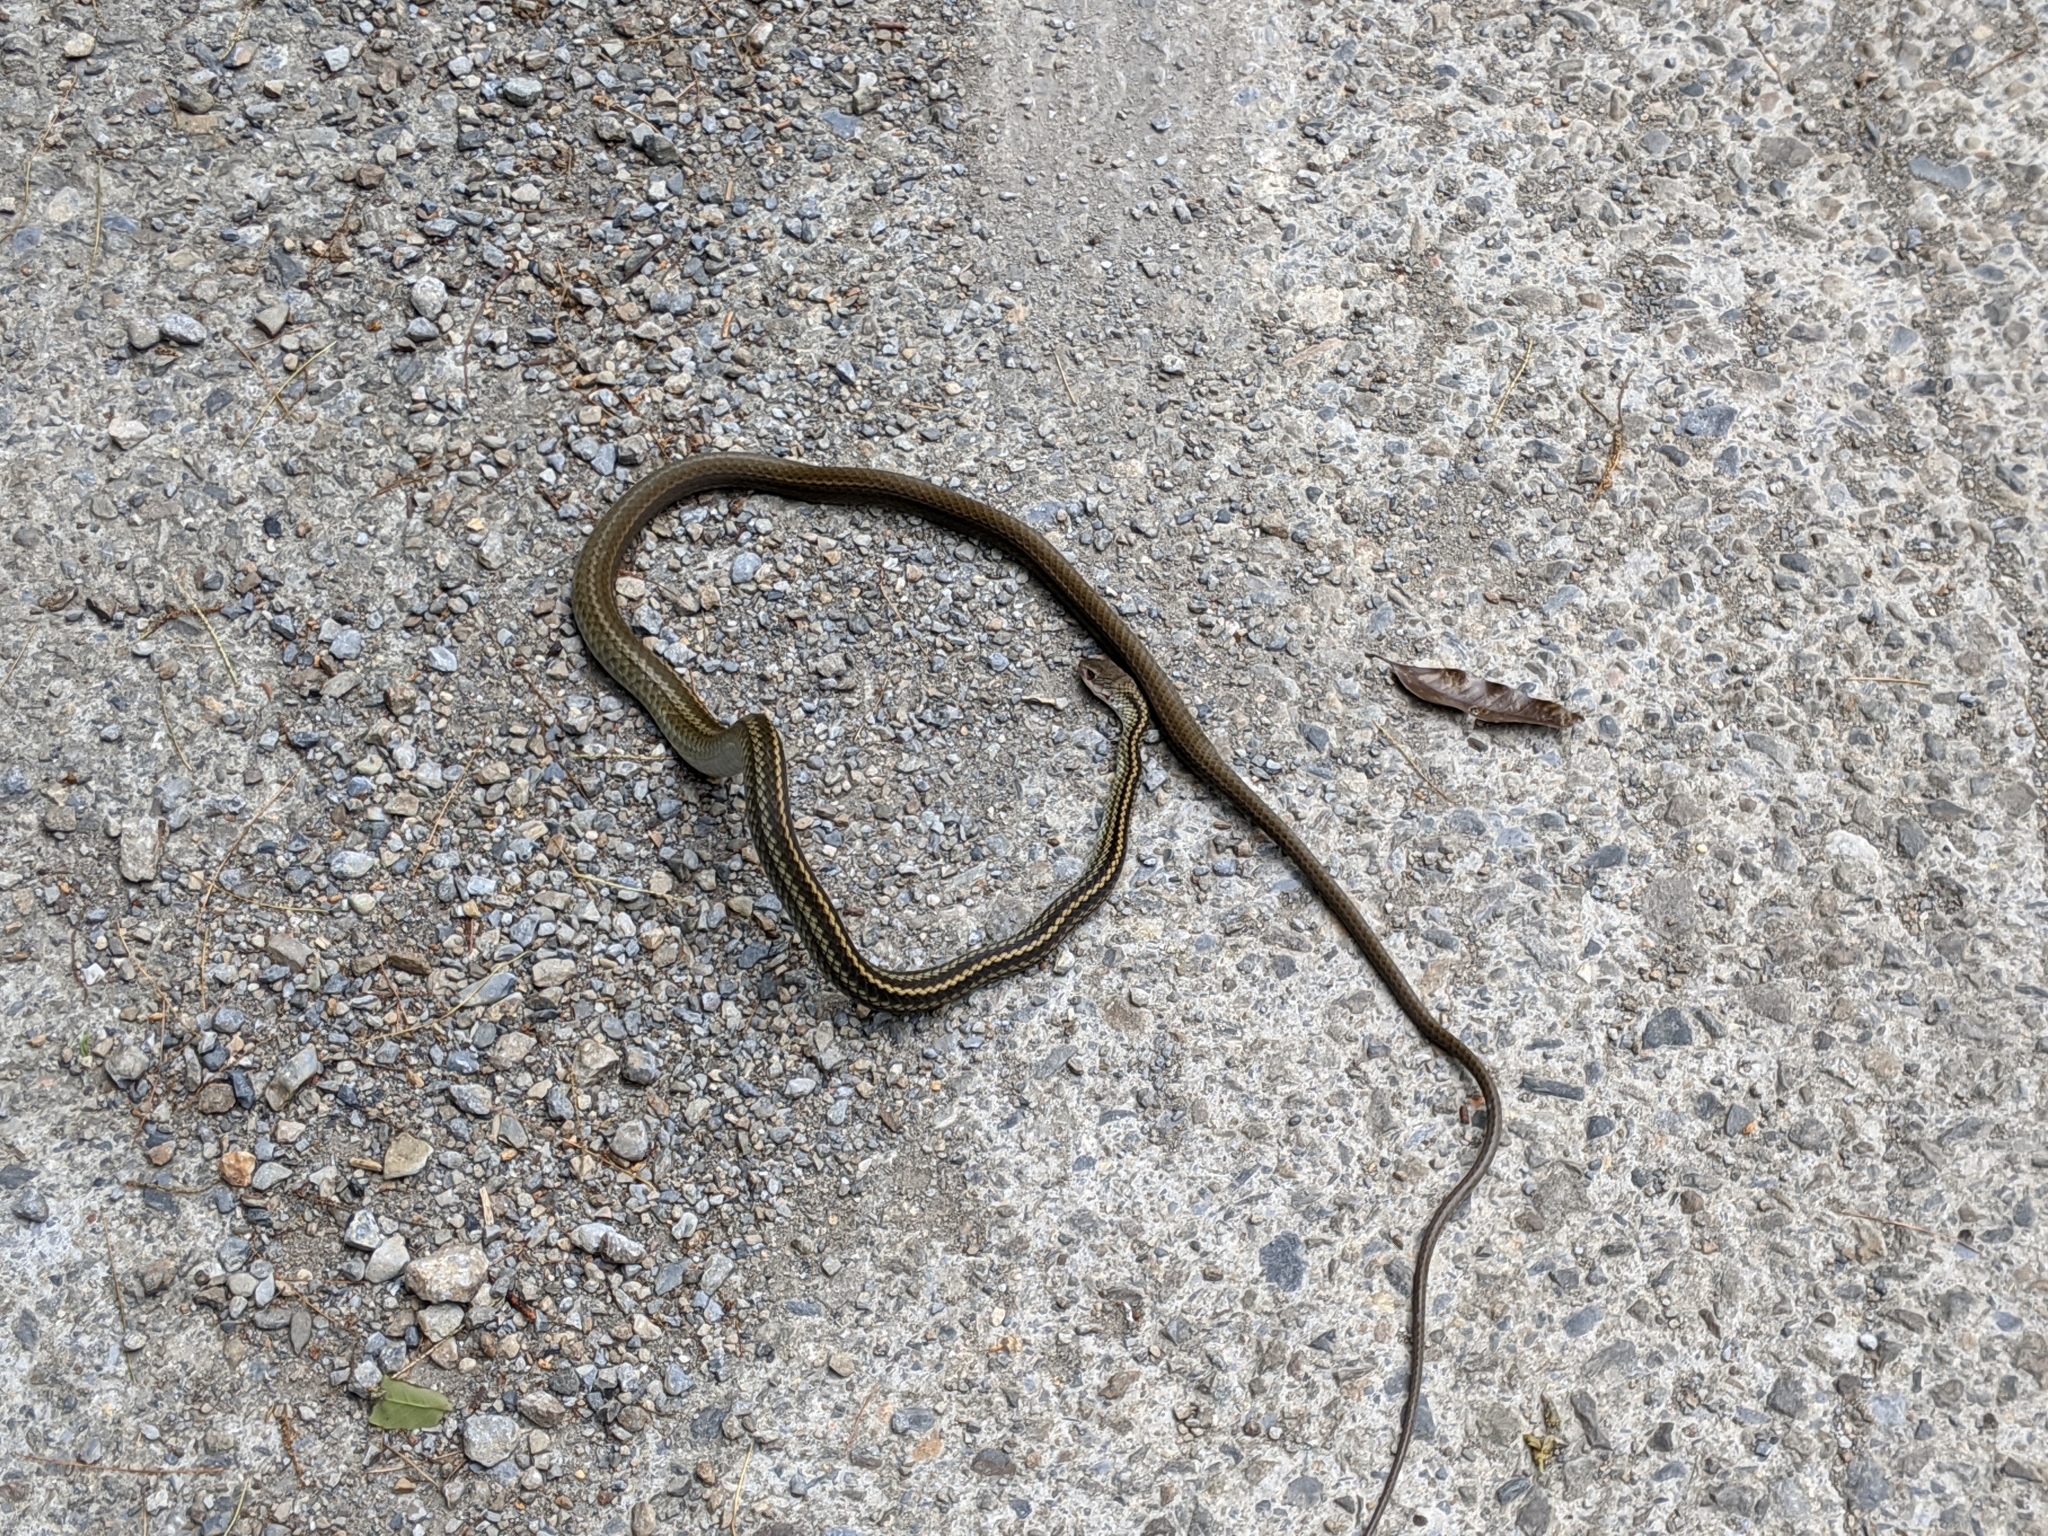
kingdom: Animalia
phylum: Chordata
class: Squamata
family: Colubridae
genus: Ptyas
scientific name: Ptyas dhumnades
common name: Black-striped rat snake
